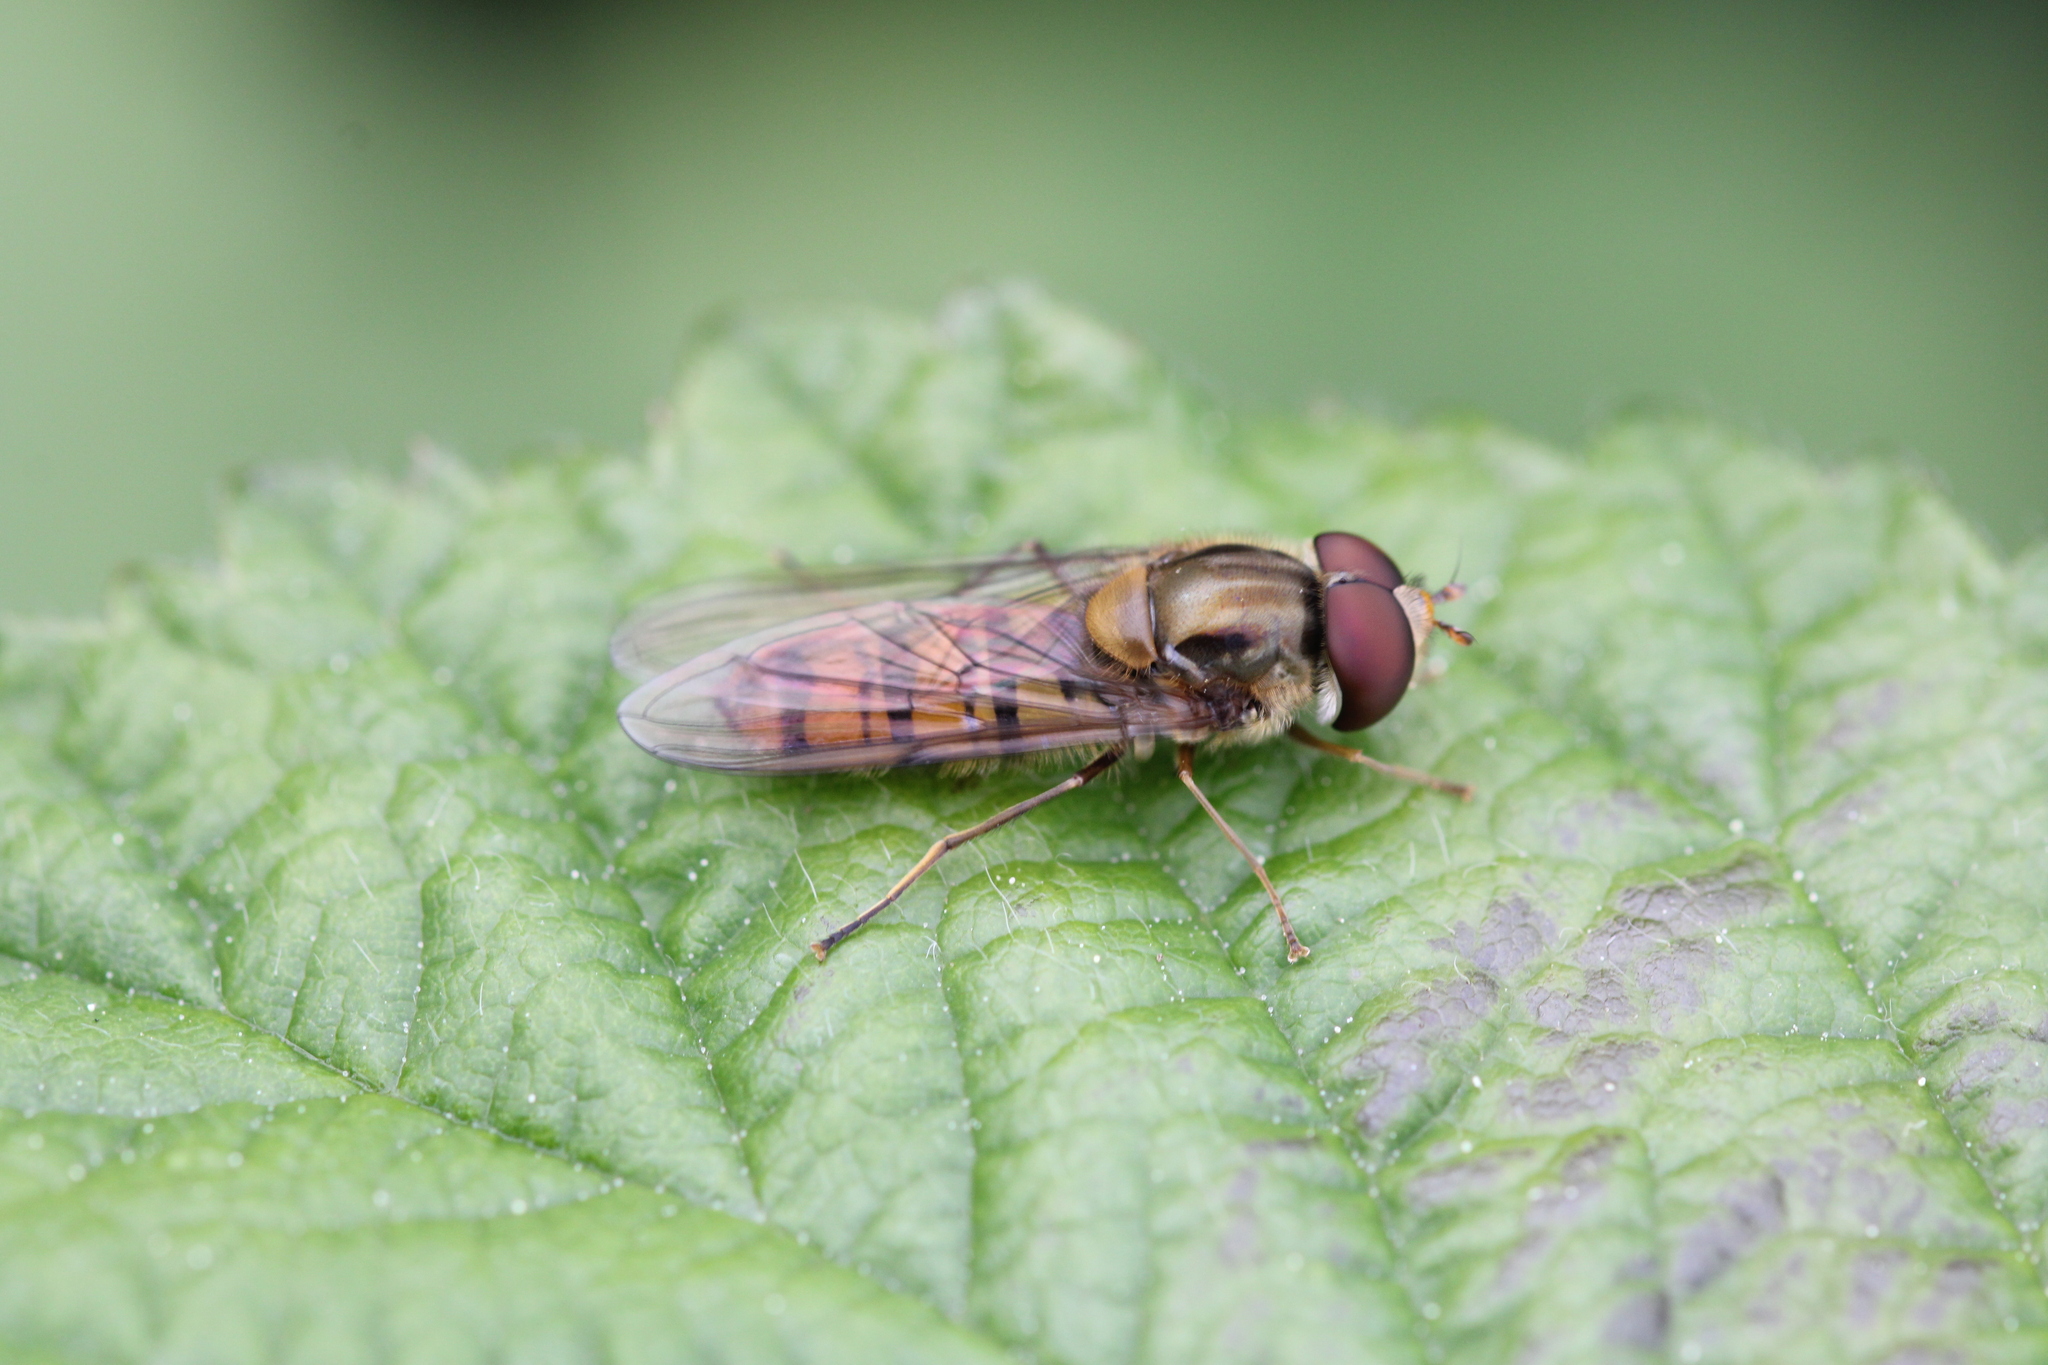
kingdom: Animalia
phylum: Arthropoda
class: Insecta
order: Diptera
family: Syrphidae
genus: Episyrphus
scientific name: Episyrphus balteatus
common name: Marmalade hoverfly
